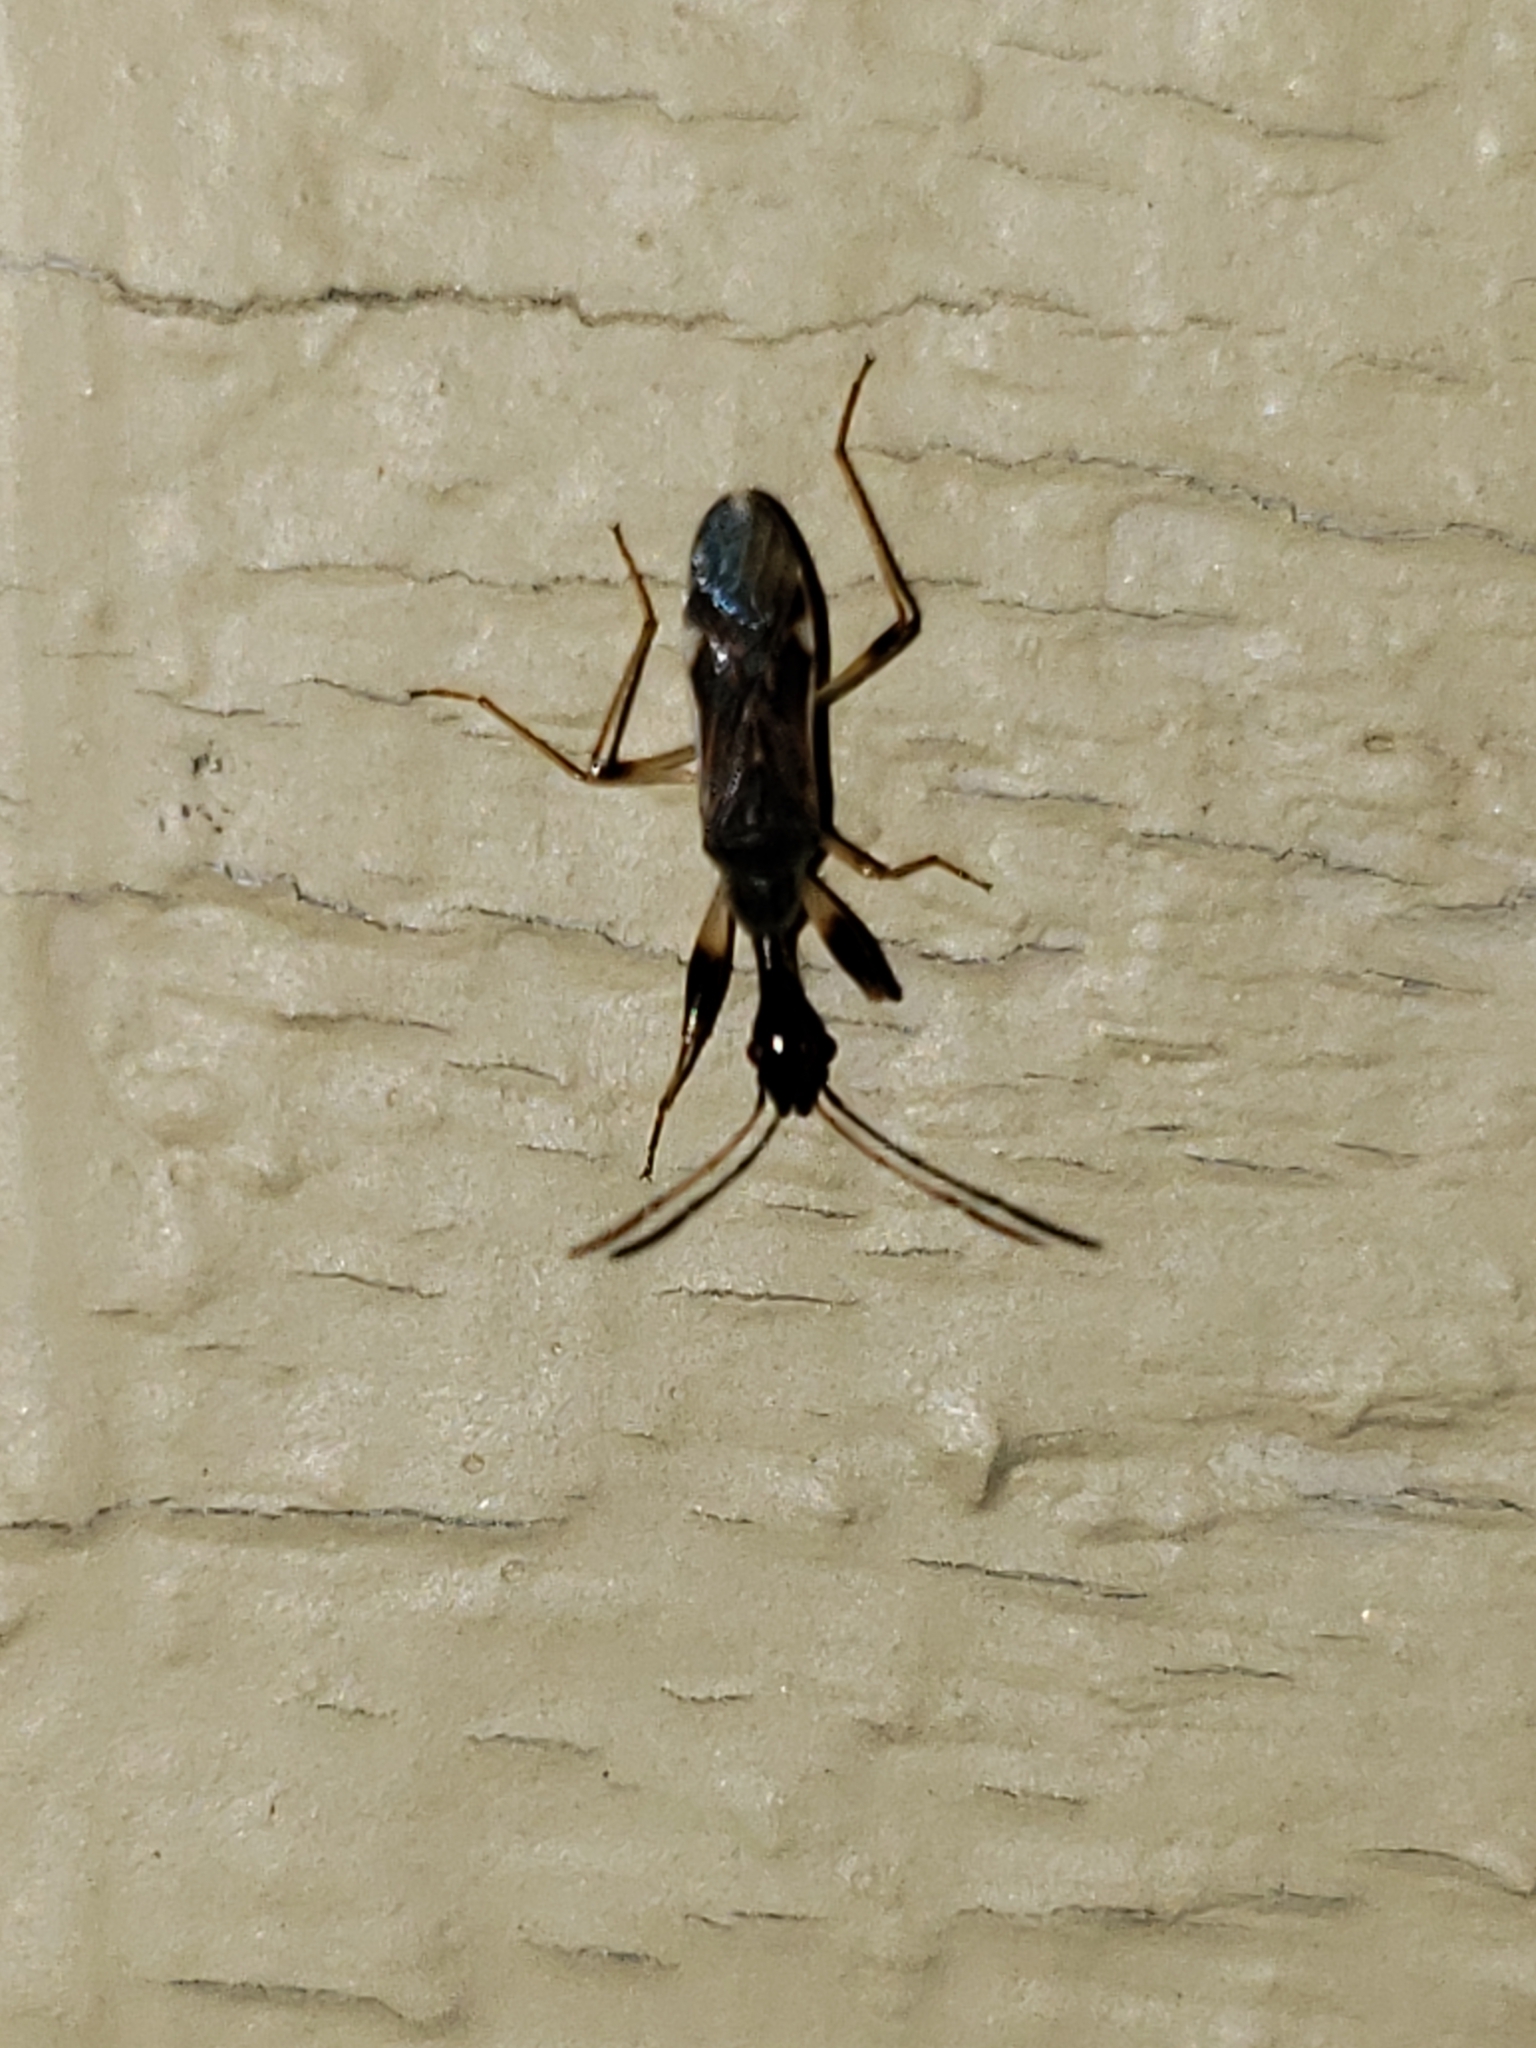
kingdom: Animalia
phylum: Arthropoda
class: Insecta
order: Hemiptera
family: Rhyparochromidae
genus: Myodocha
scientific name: Myodocha serripes
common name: Long-necked seed bug
